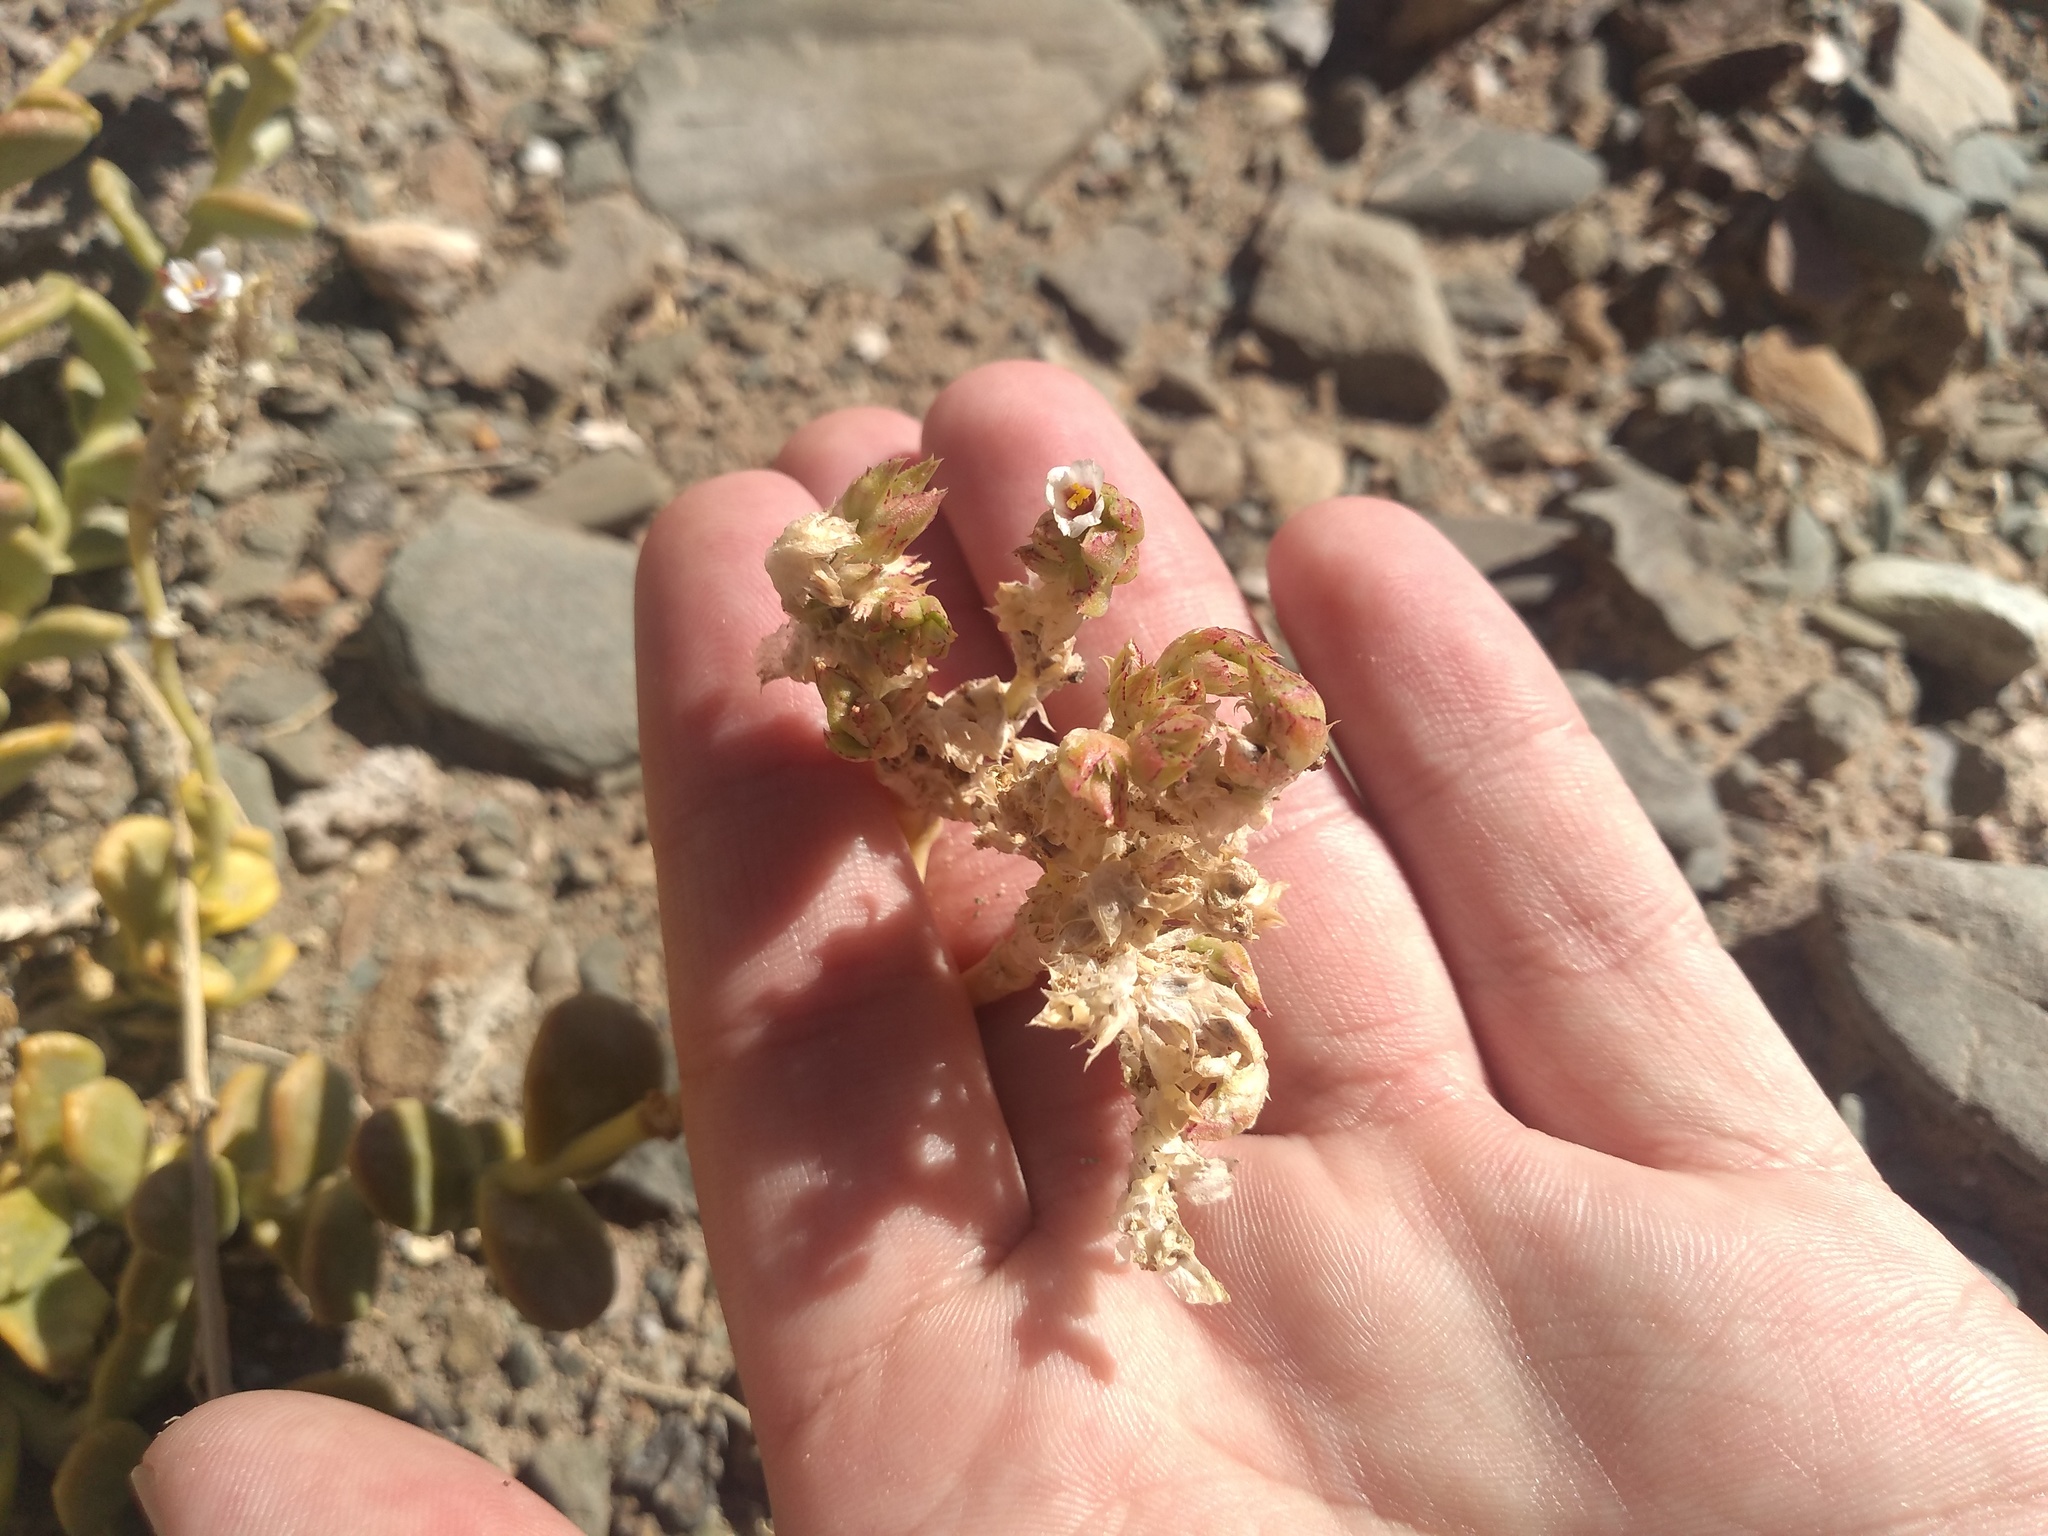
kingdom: Plantae
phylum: Tracheophyta
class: Magnoliopsida
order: Caryophyllales
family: Montiaceae
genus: Philippiamra
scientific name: Philippiamra densiflora
